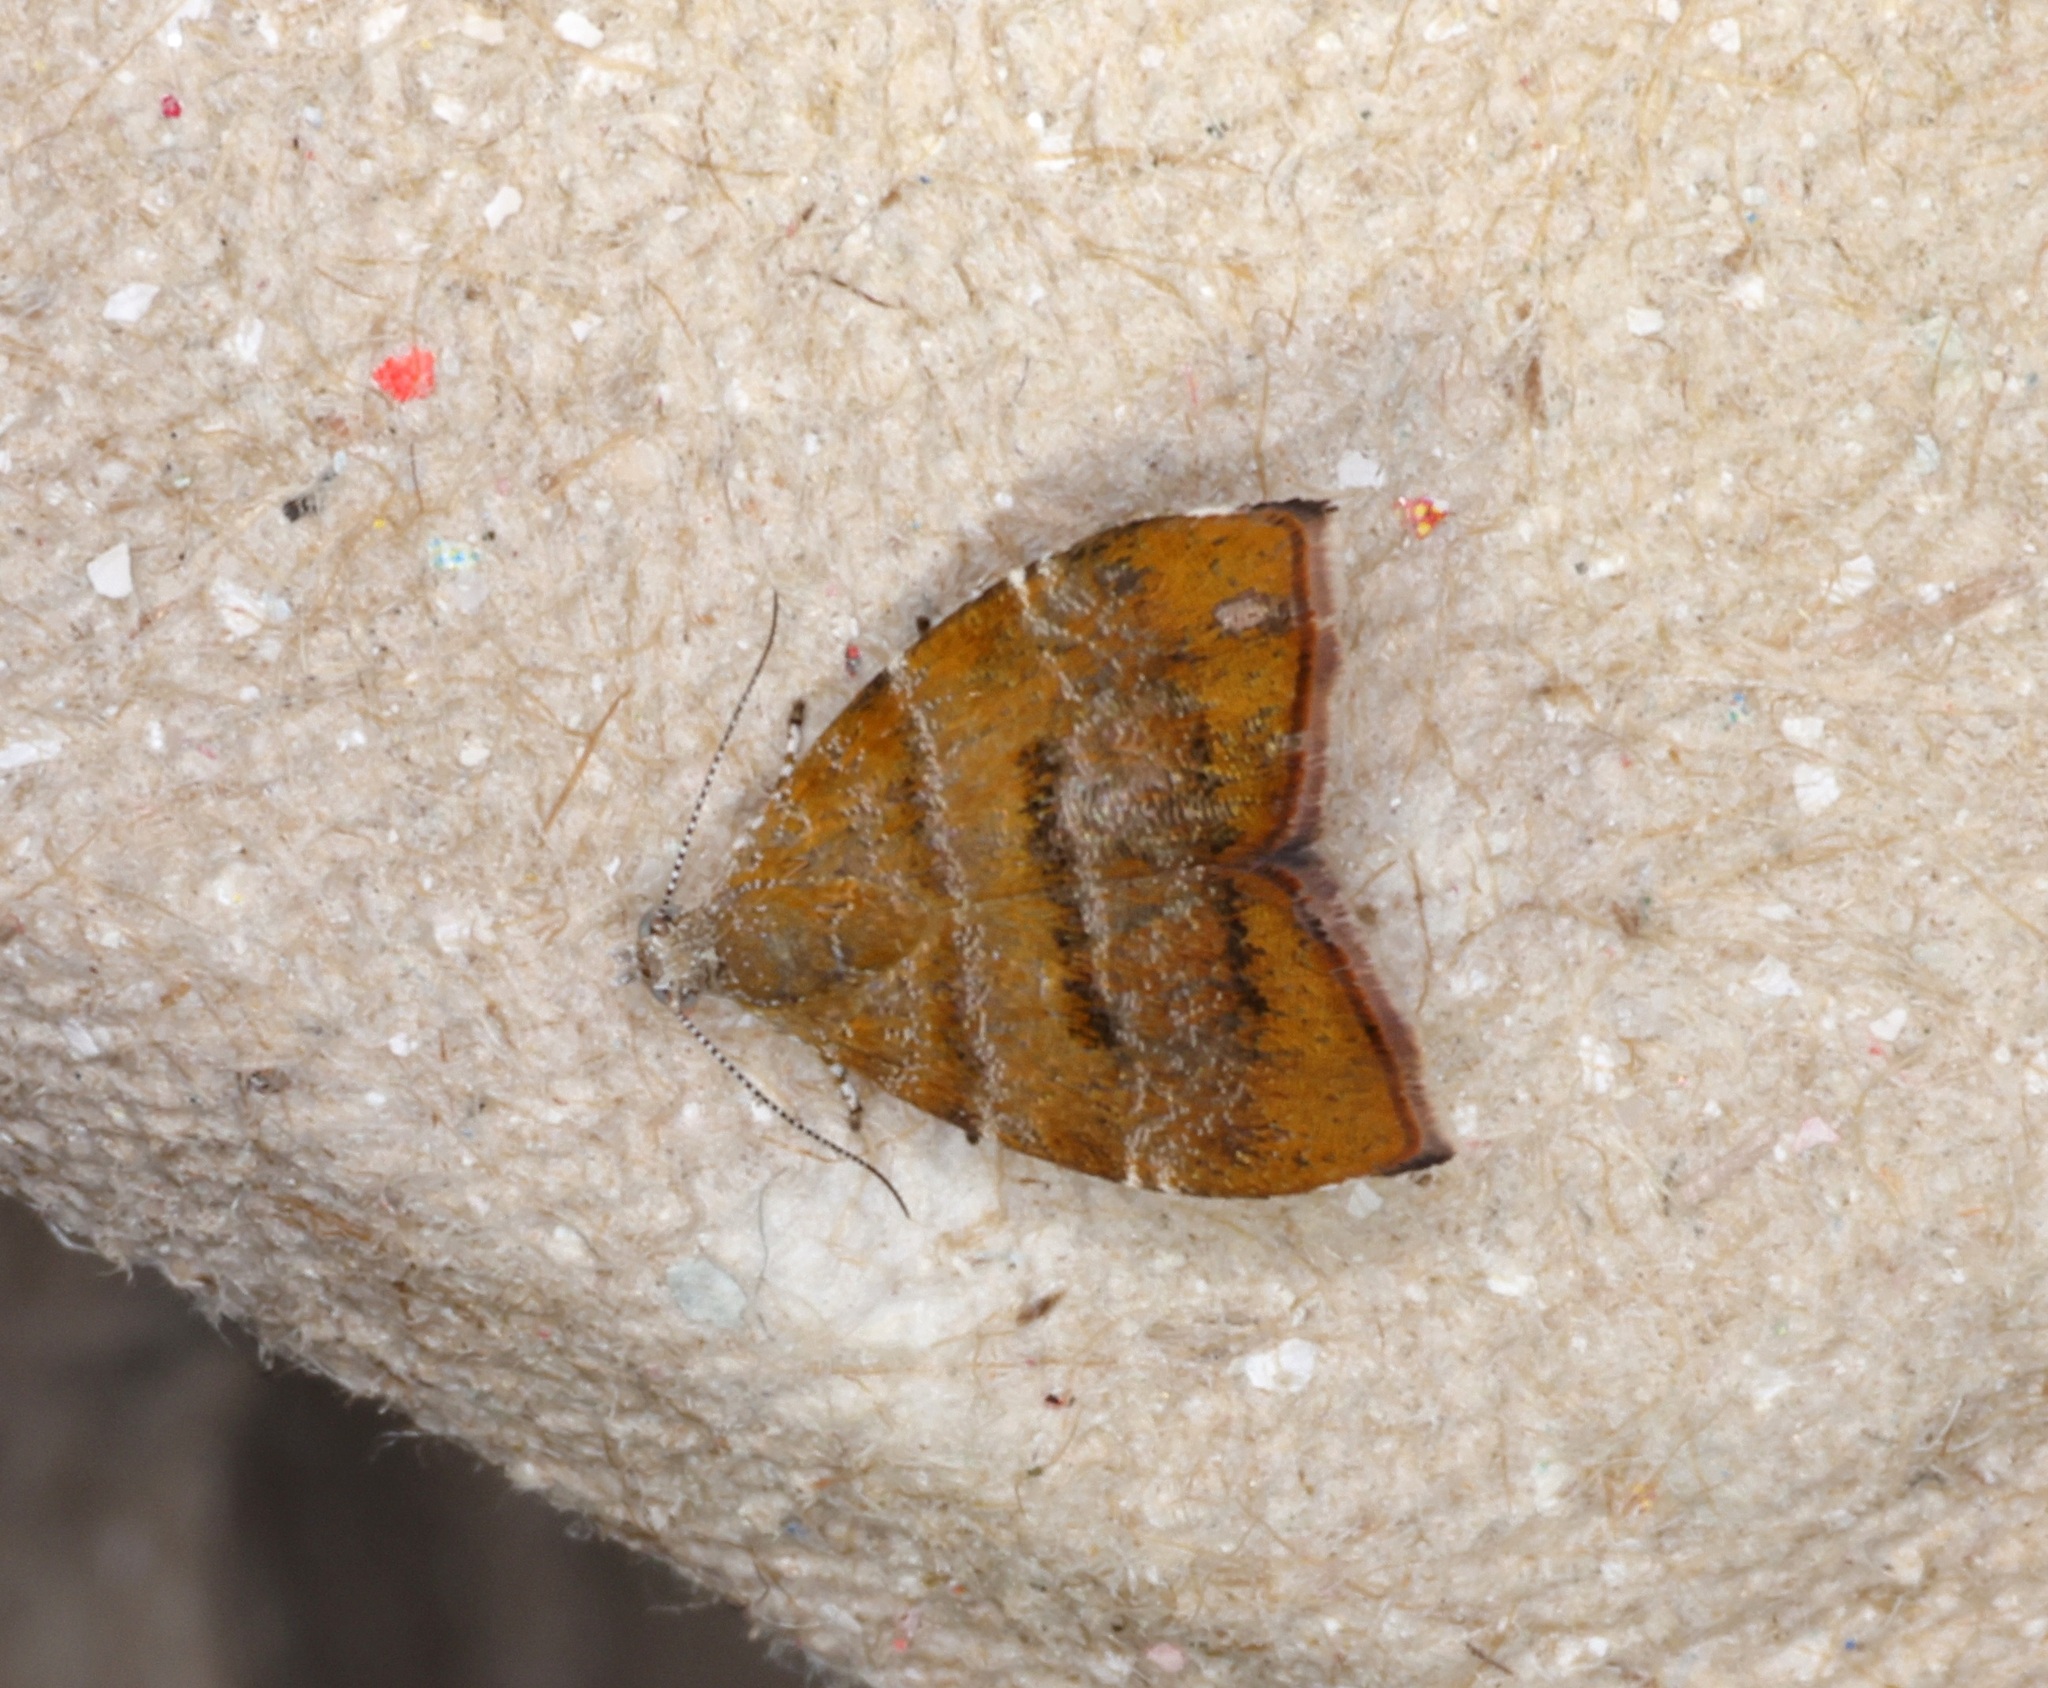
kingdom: Animalia
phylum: Arthropoda
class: Insecta
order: Lepidoptera
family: Choreutidae
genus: Anthophila
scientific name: Anthophila achyrodes
